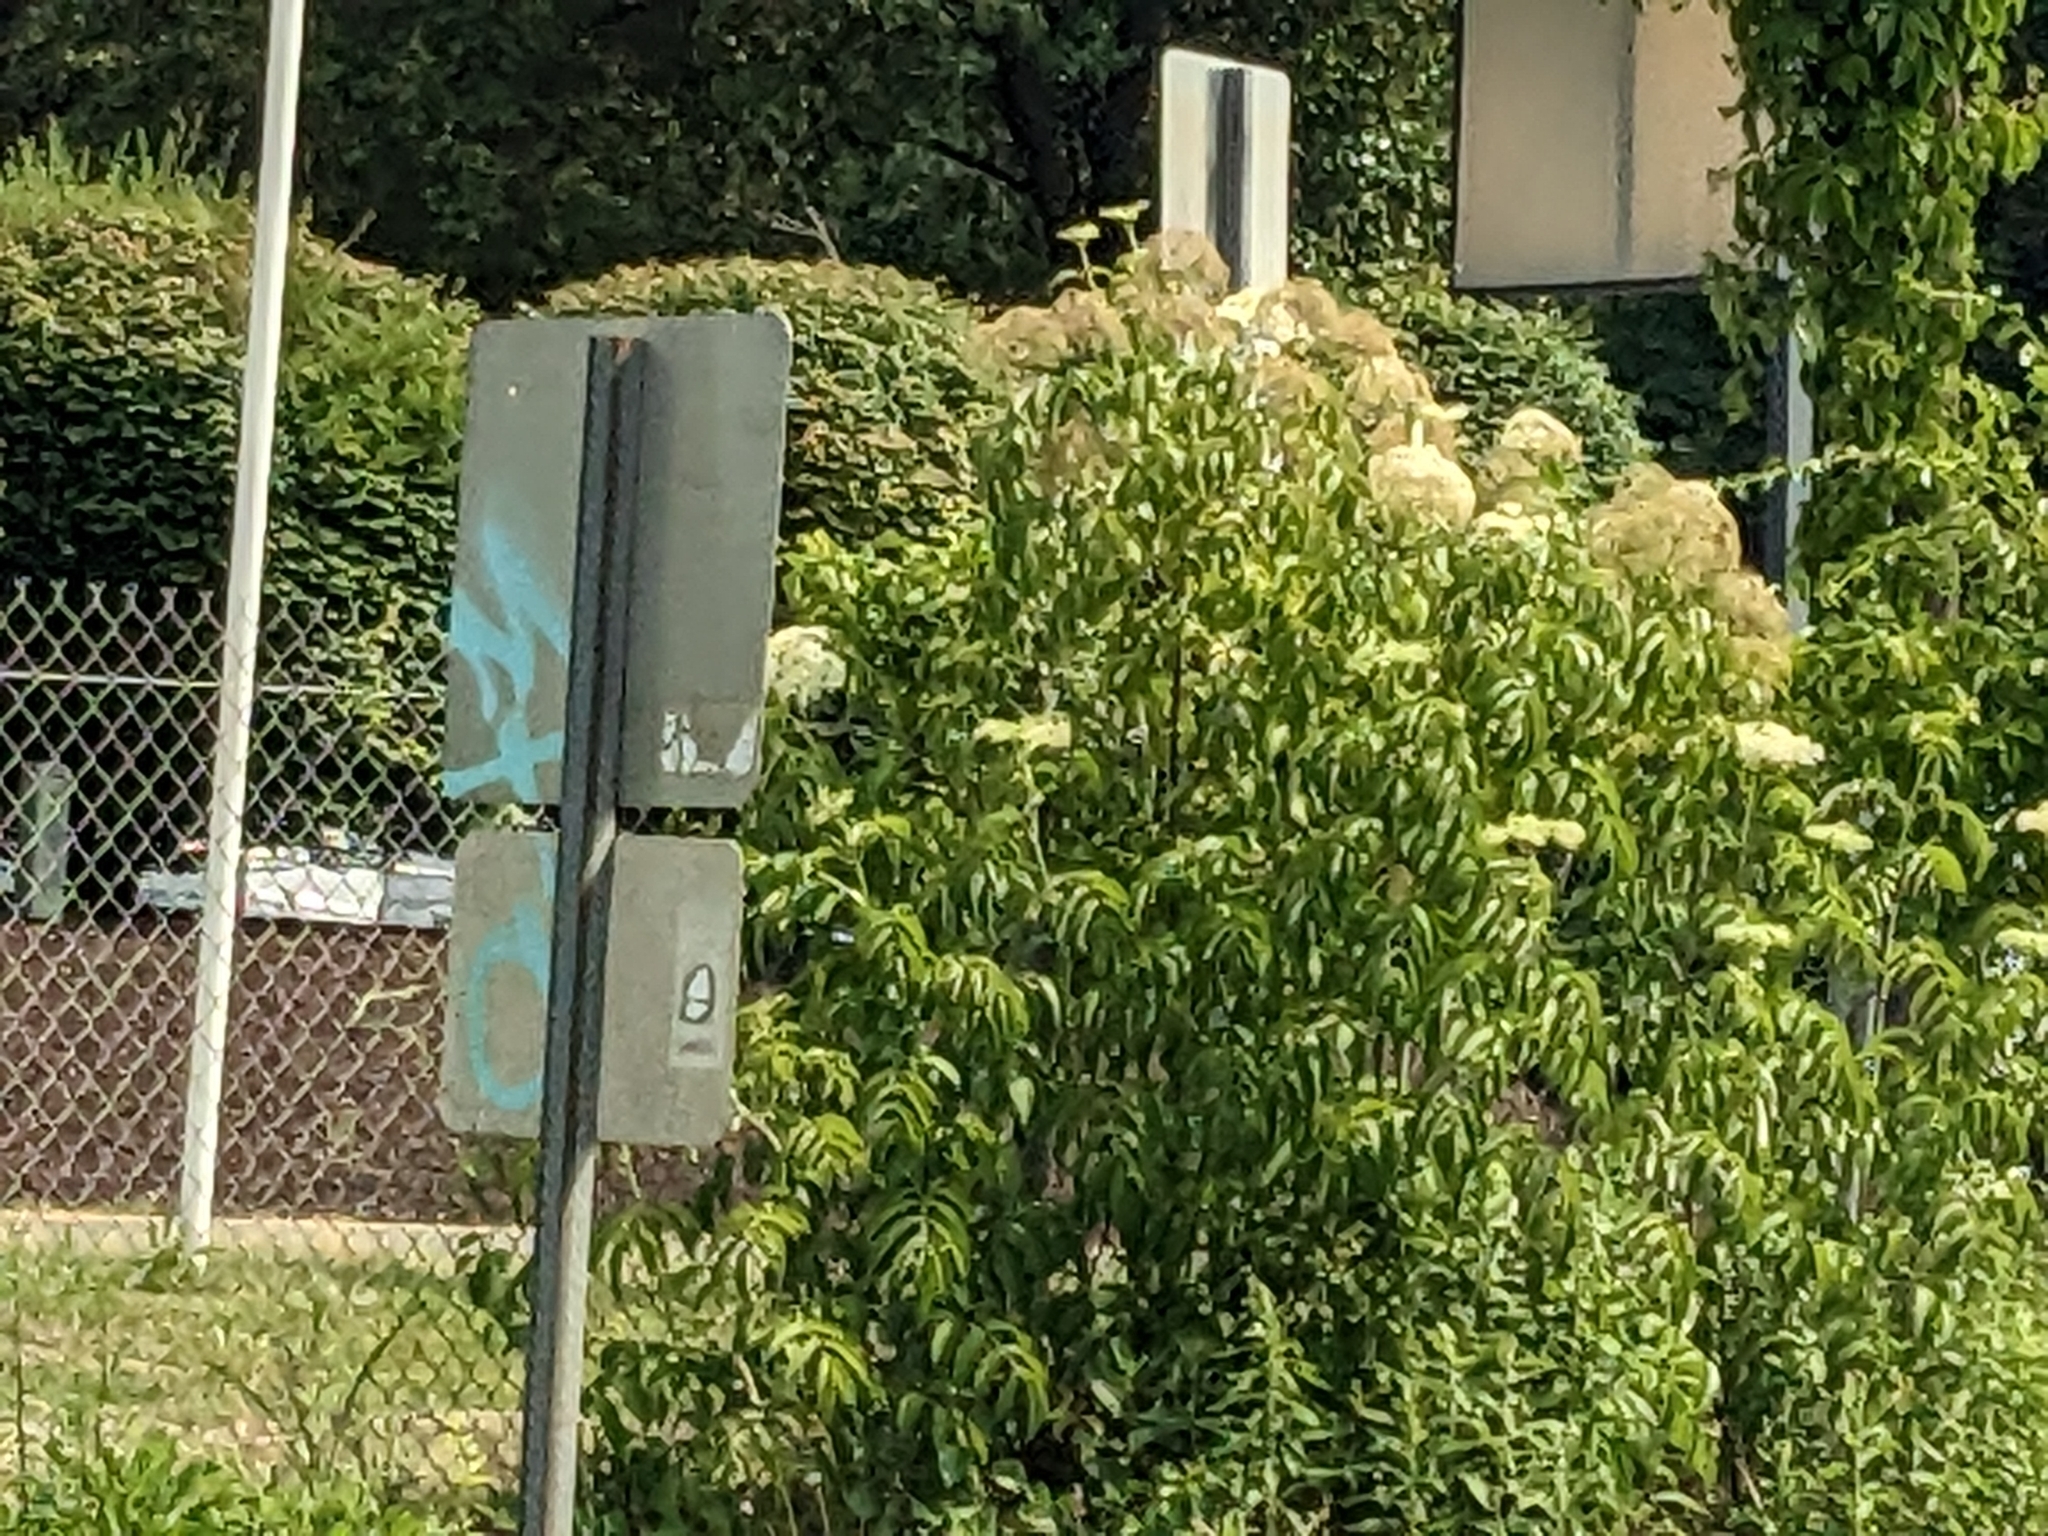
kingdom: Plantae
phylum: Tracheophyta
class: Magnoliopsida
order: Dipsacales
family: Viburnaceae
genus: Sambucus
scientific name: Sambucus canadensis
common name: American elder
